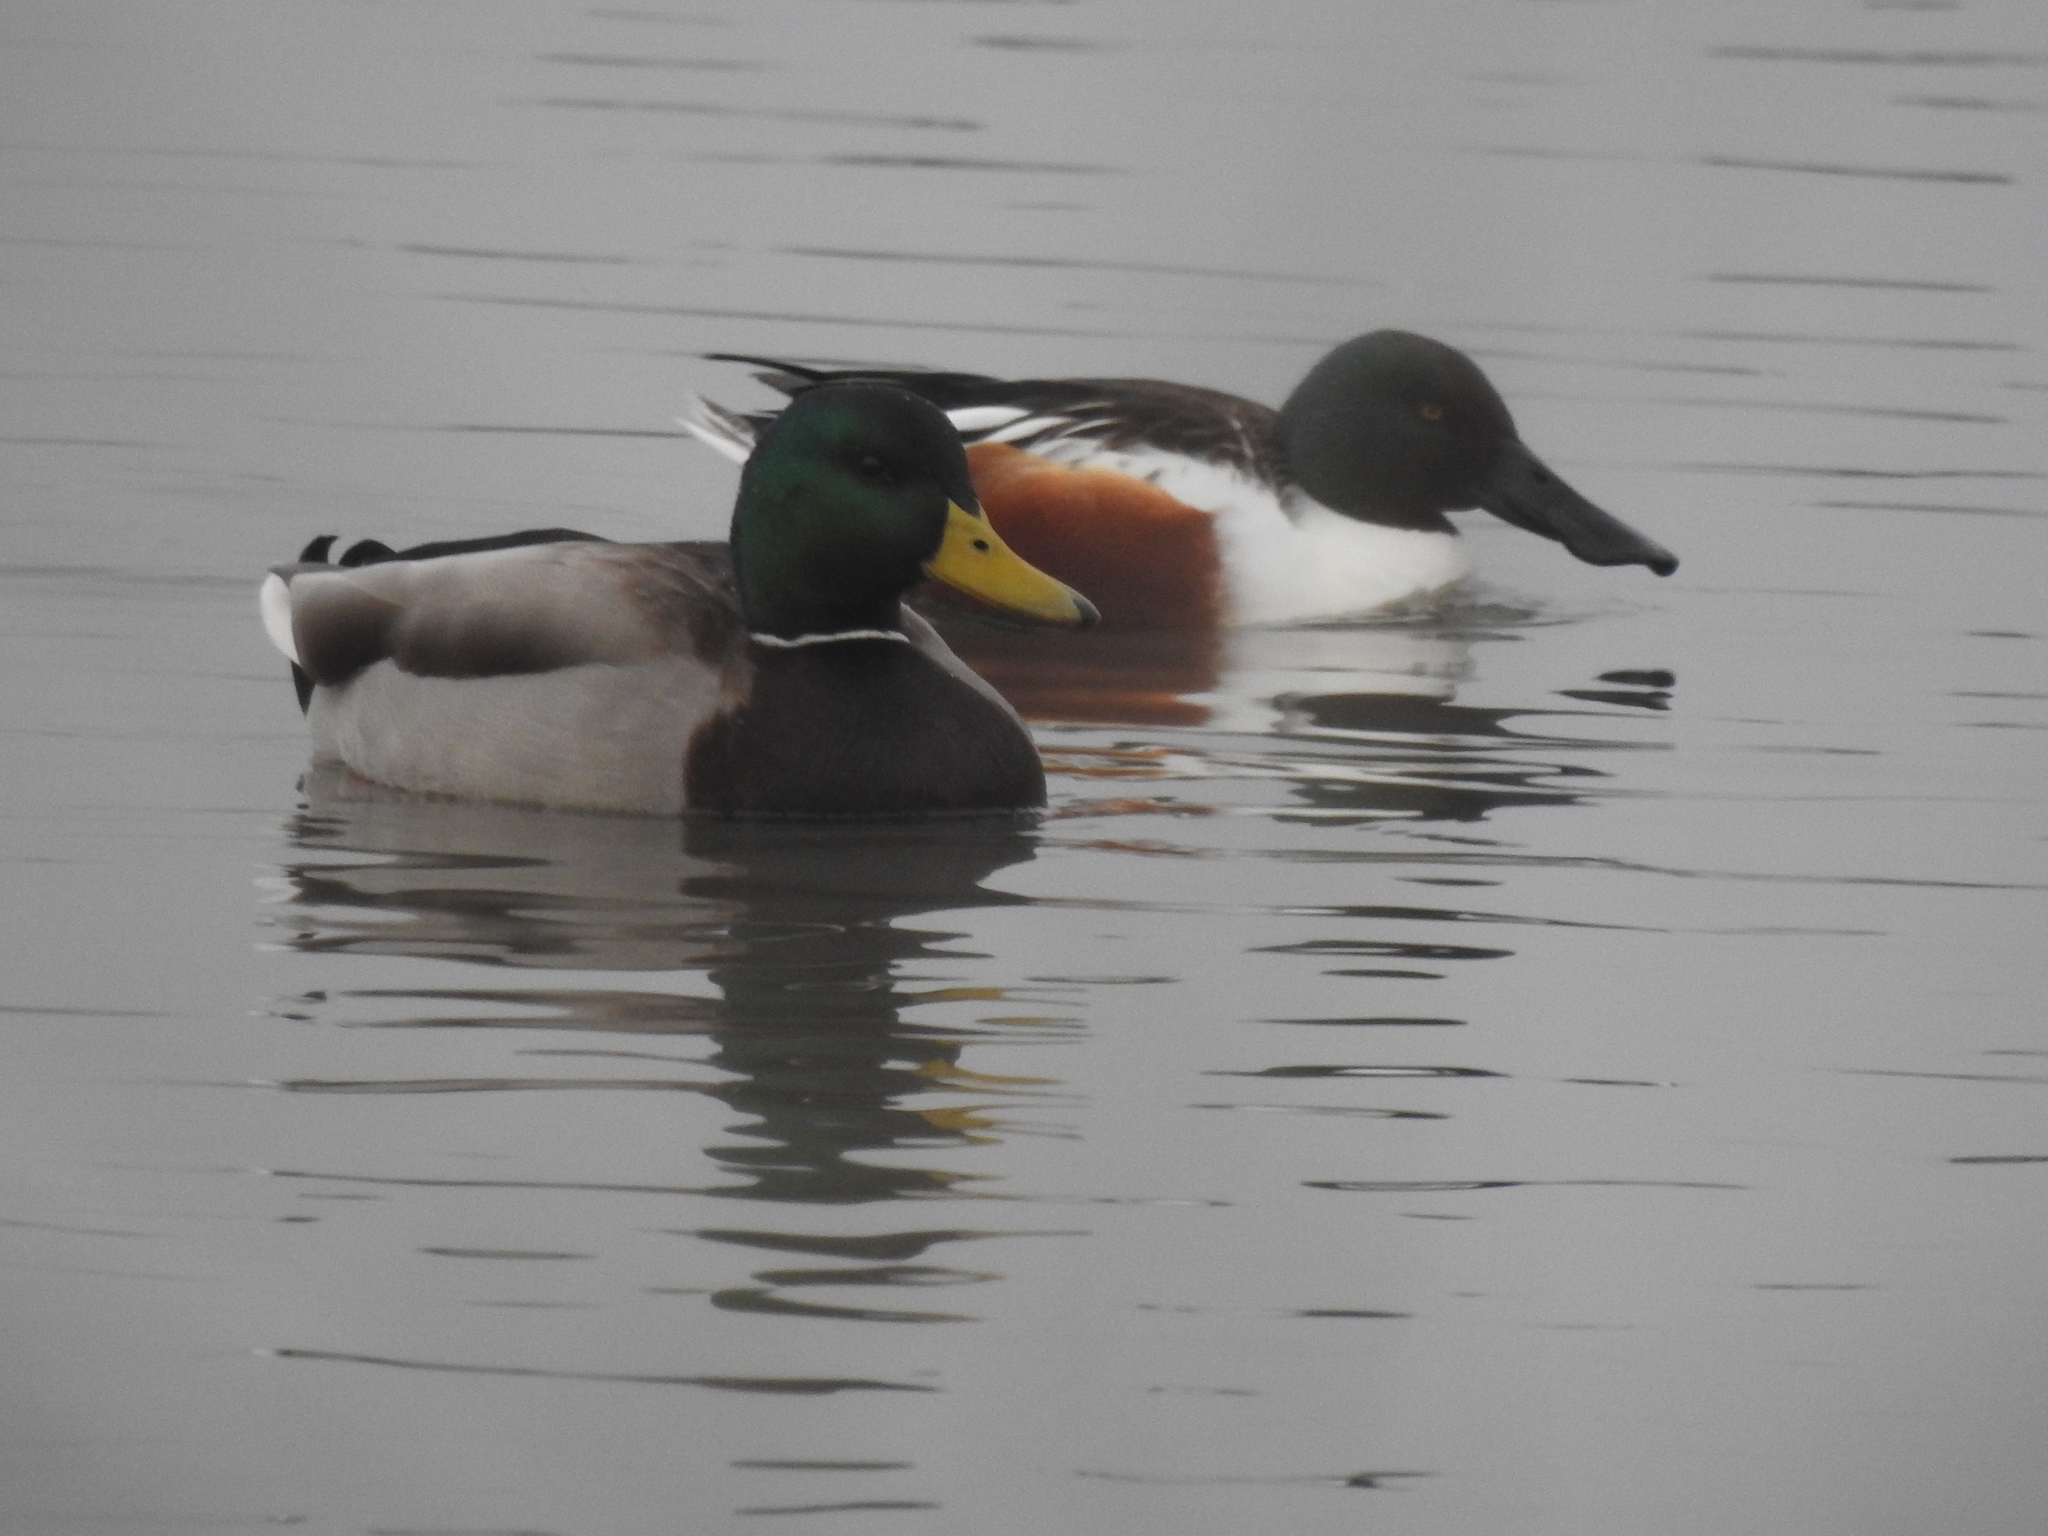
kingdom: Animalia
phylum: Chordata
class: Aves
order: Anseriformes
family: Anatidae
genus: Spatula
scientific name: Spatula clypeata
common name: Northern shoveler
